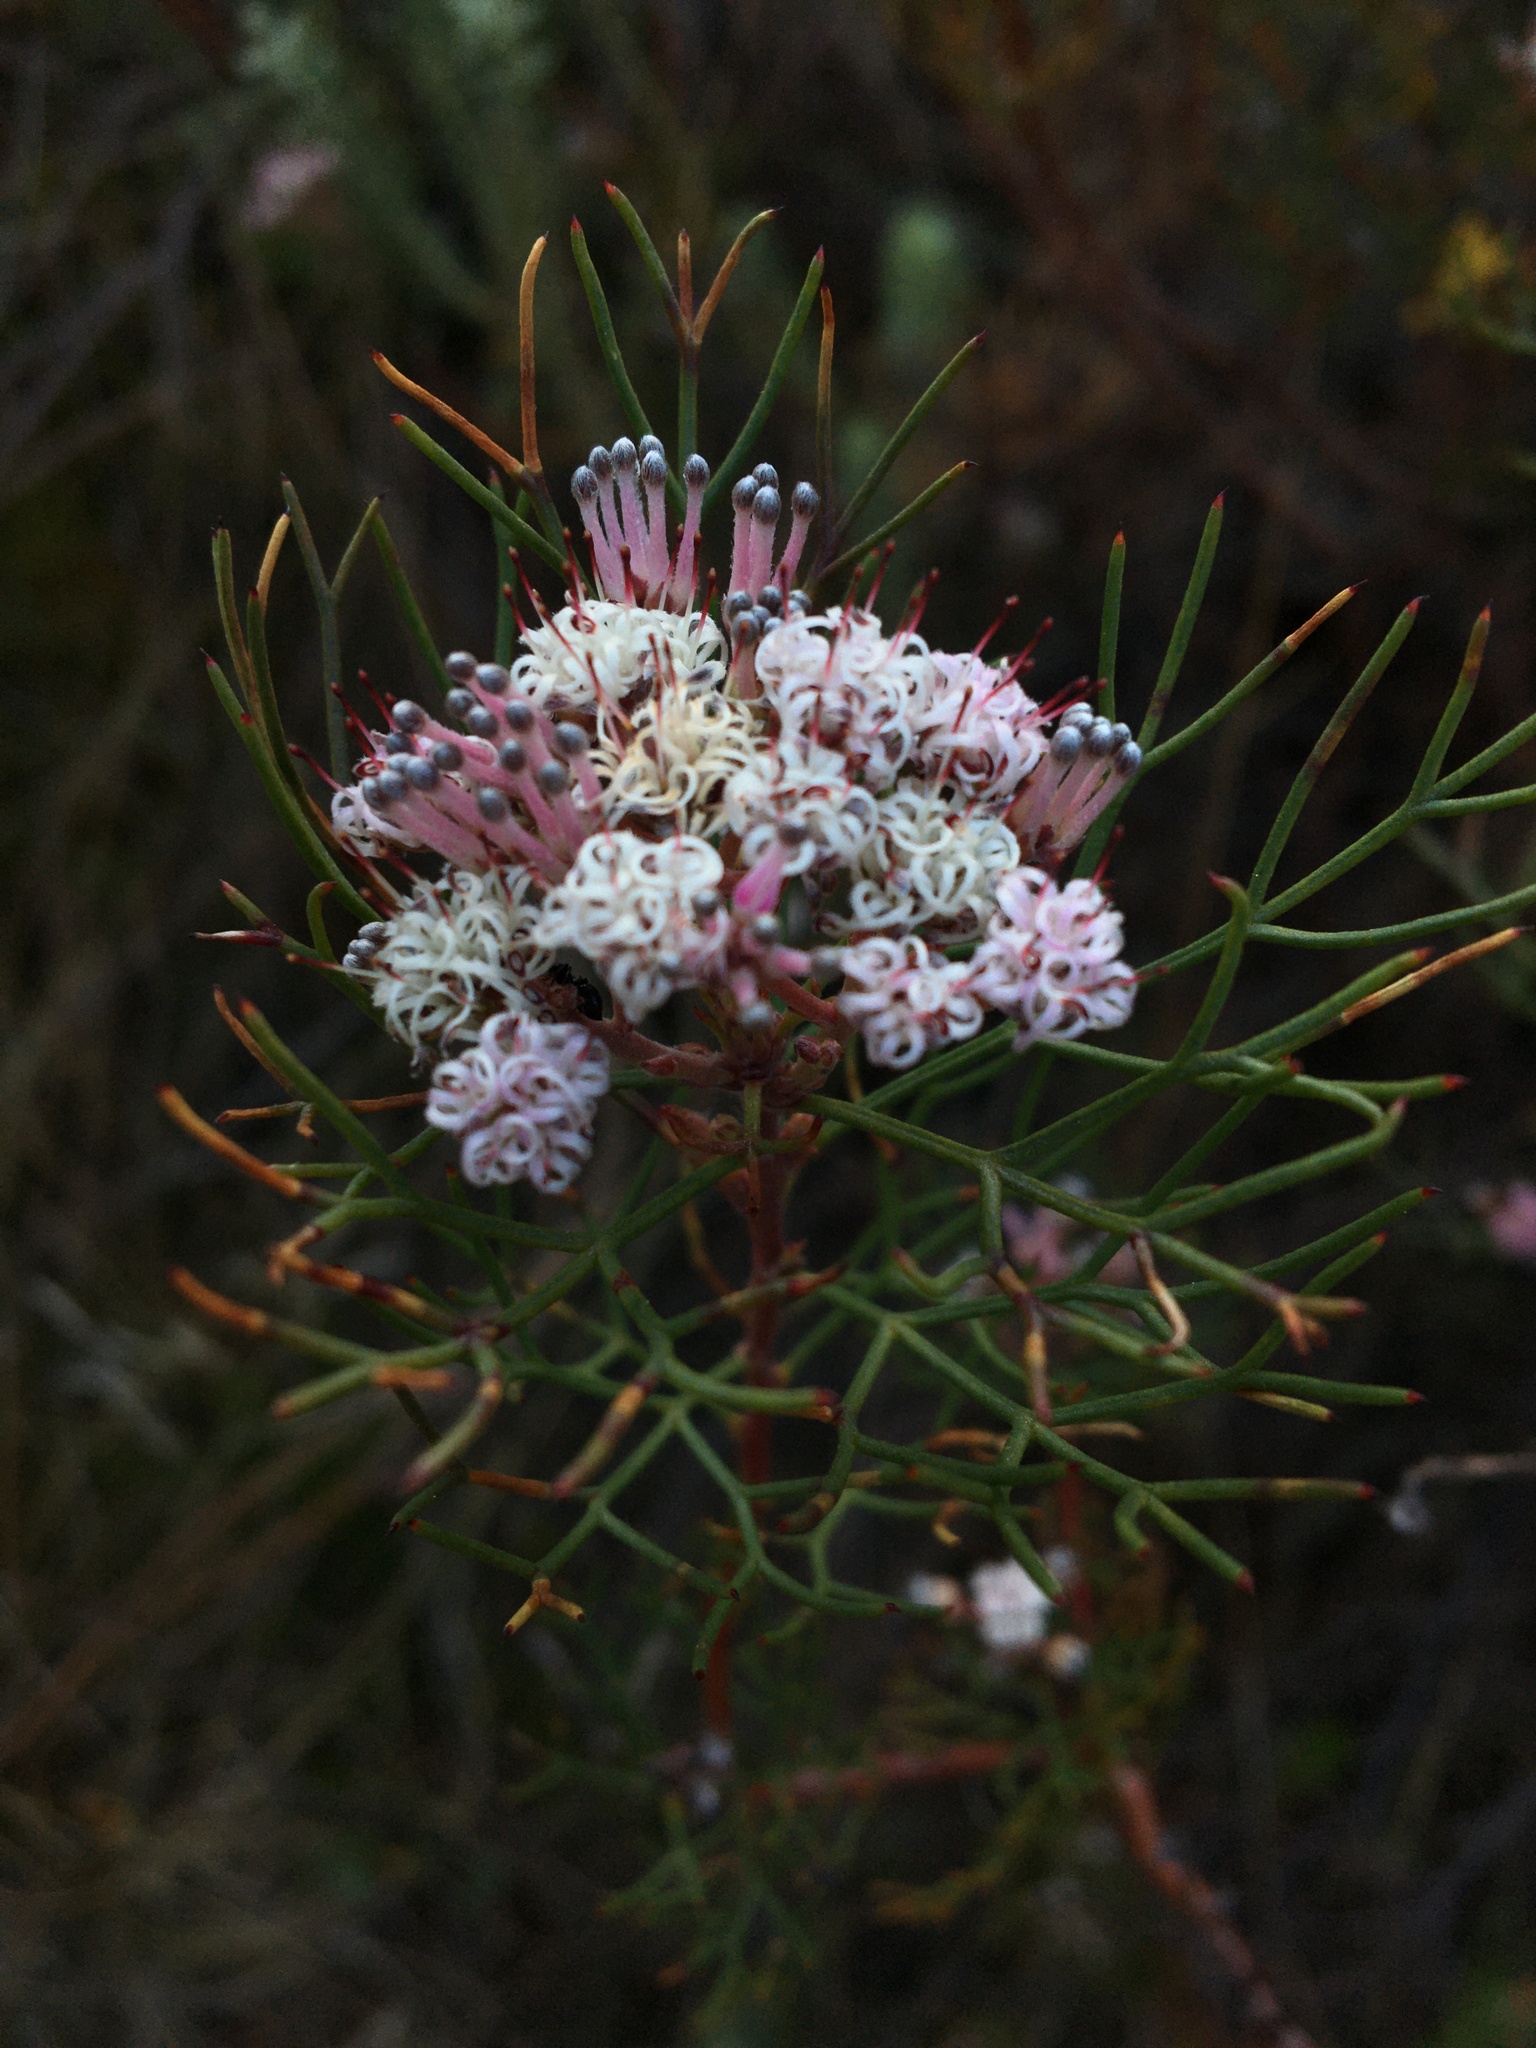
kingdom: Plantae
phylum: Tracheophyta
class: Magnoliopsida
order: Proteales
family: Proteaceae
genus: Serruria
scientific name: Serruria fasciflora
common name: Common pin spiderhead
